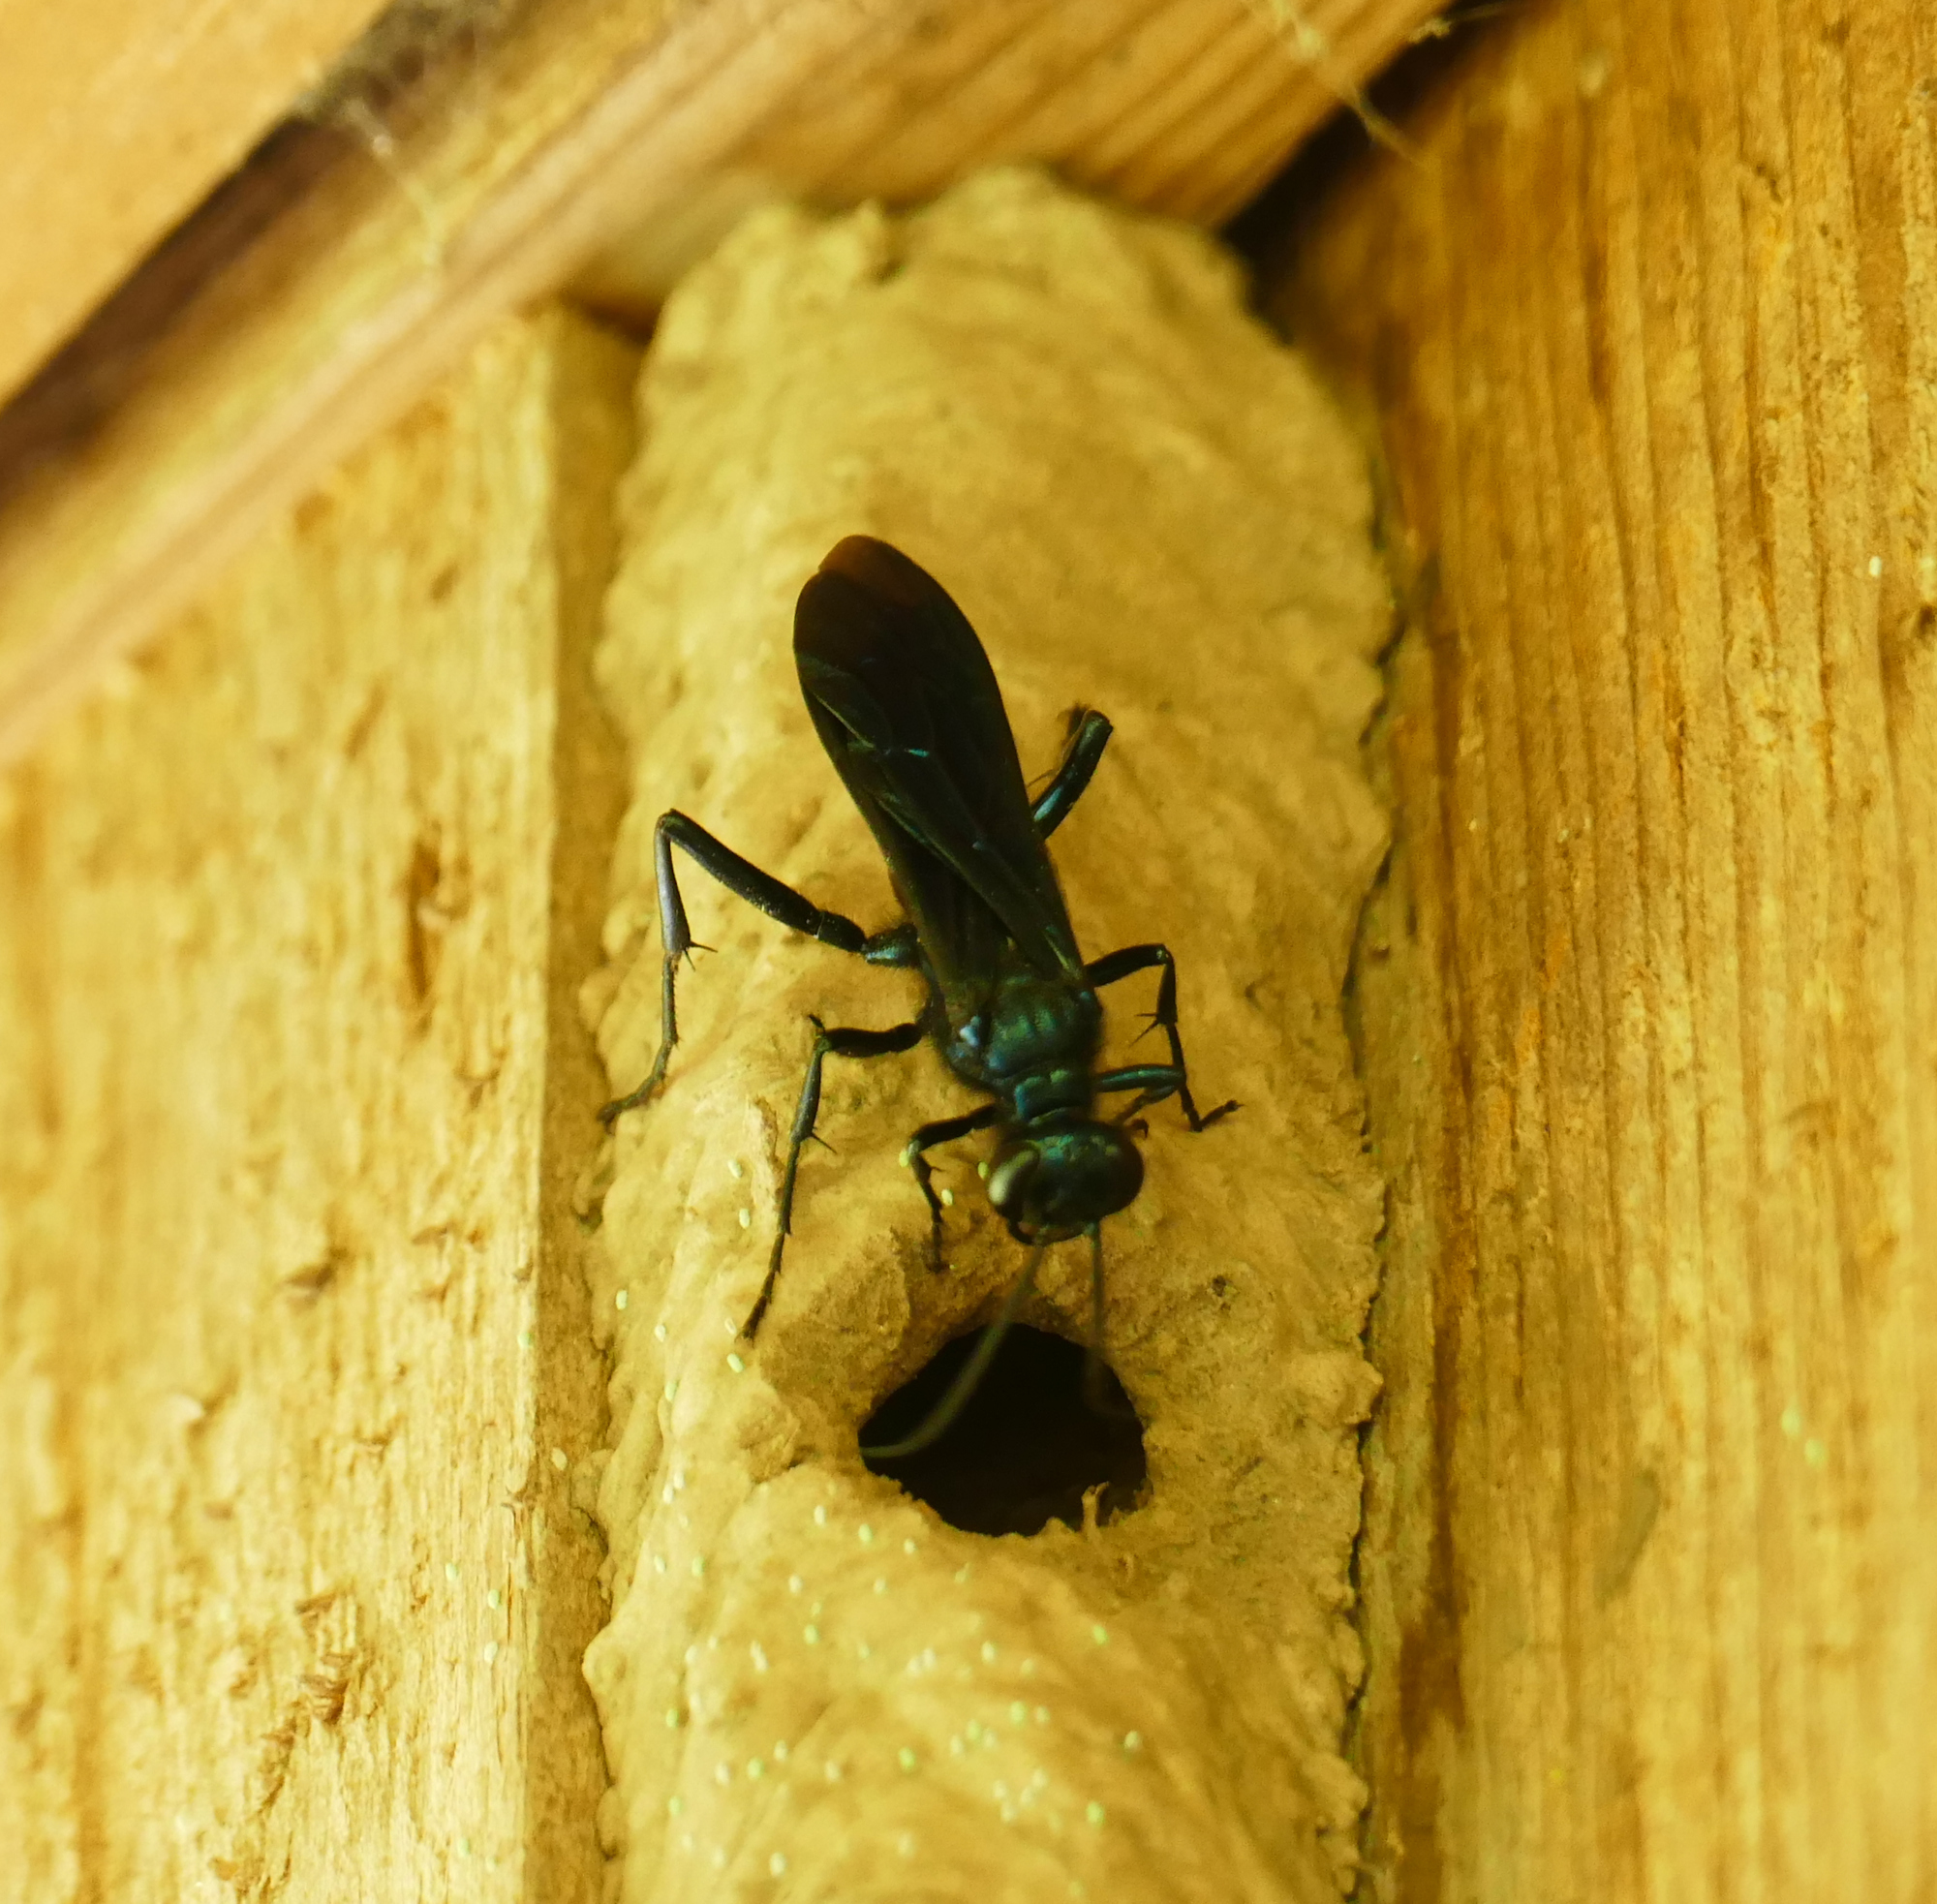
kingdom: Animalia
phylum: Arthropoda
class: Insecta
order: Hymenoptera
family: Sphecidae
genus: Chalybion
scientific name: Chalybion californicum
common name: Mud dauber
